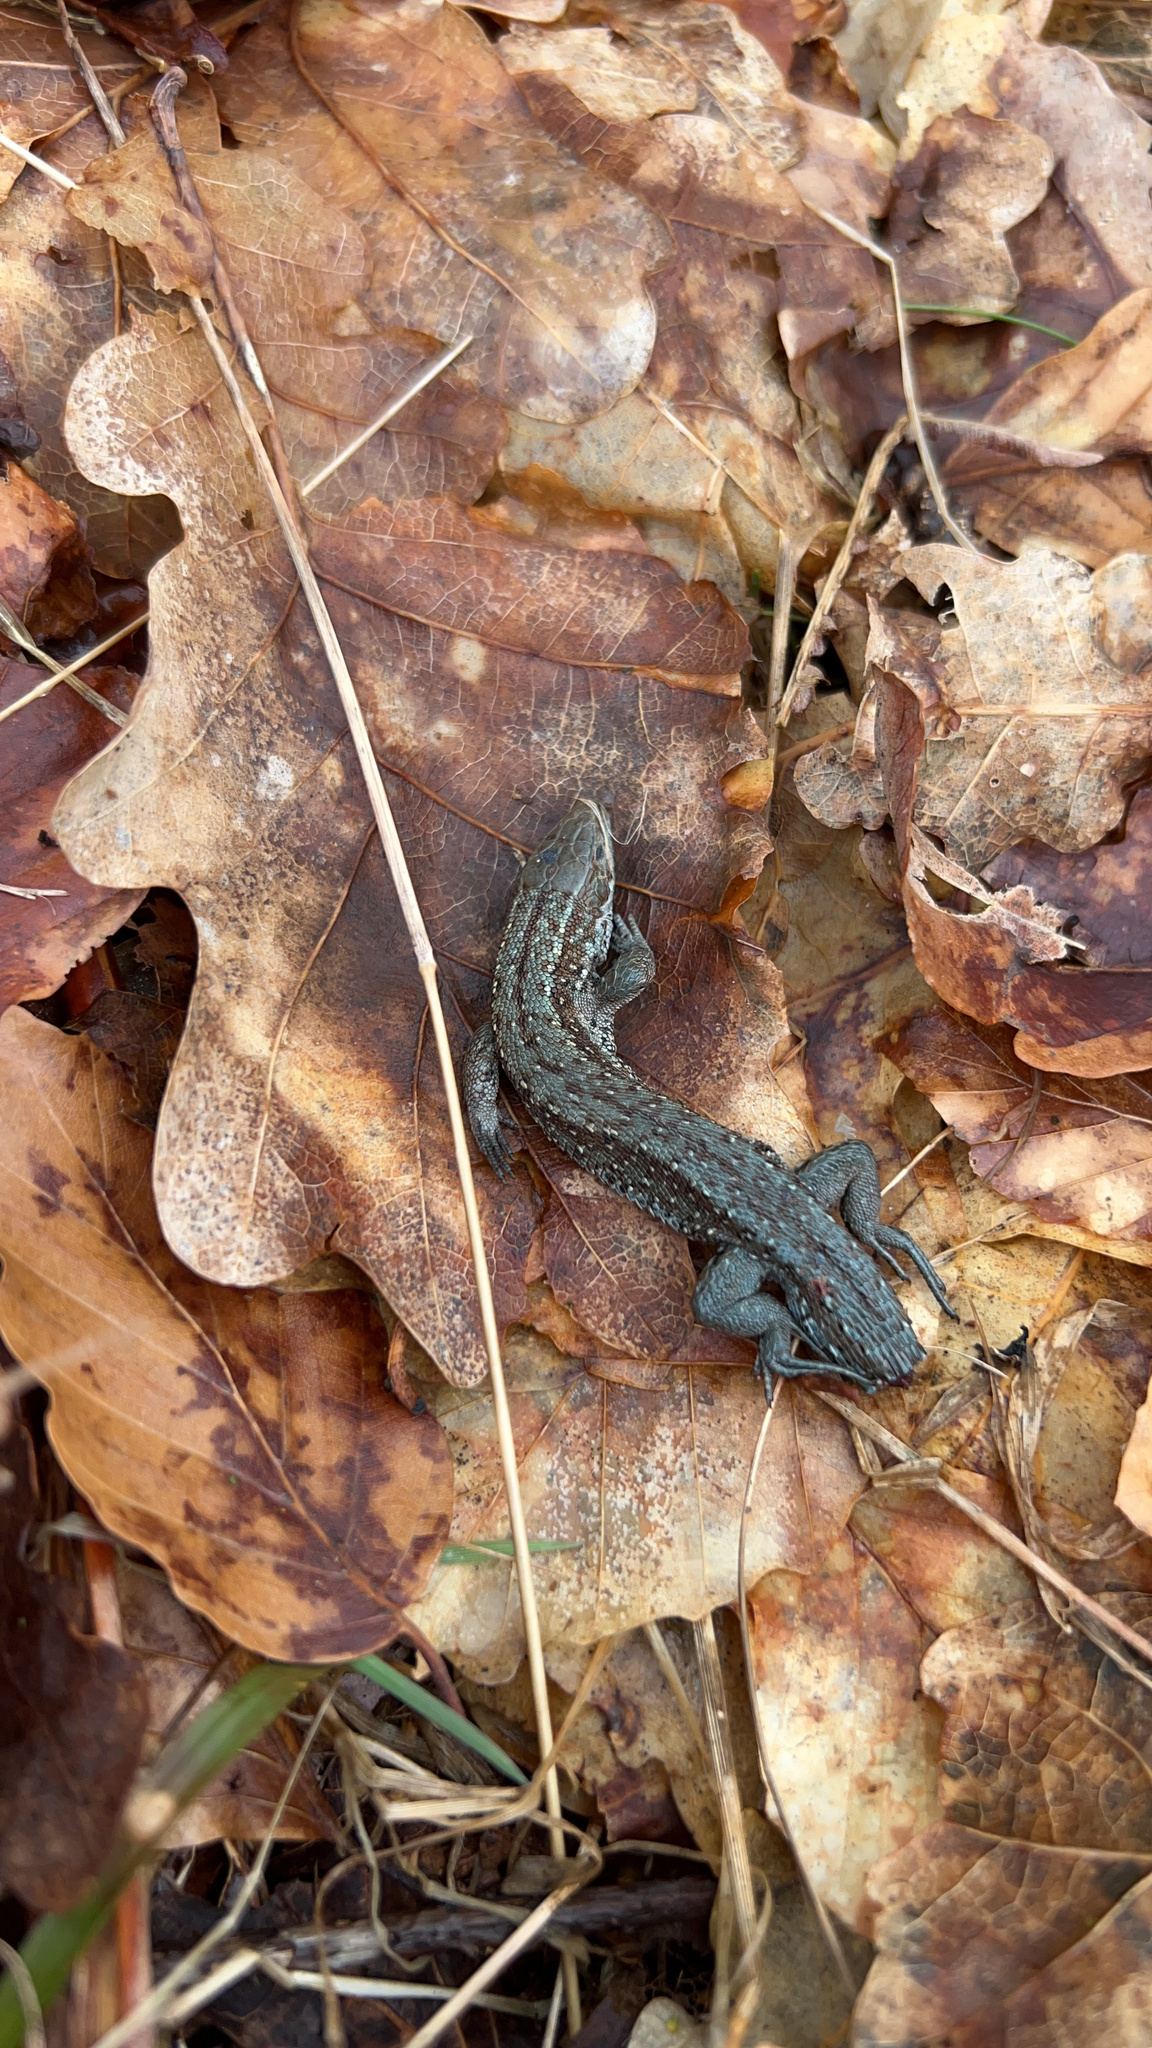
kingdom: Animalia
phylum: Chordata
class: Squamata
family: Lacertidae
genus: Zootoca
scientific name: Zootoca vivipara
